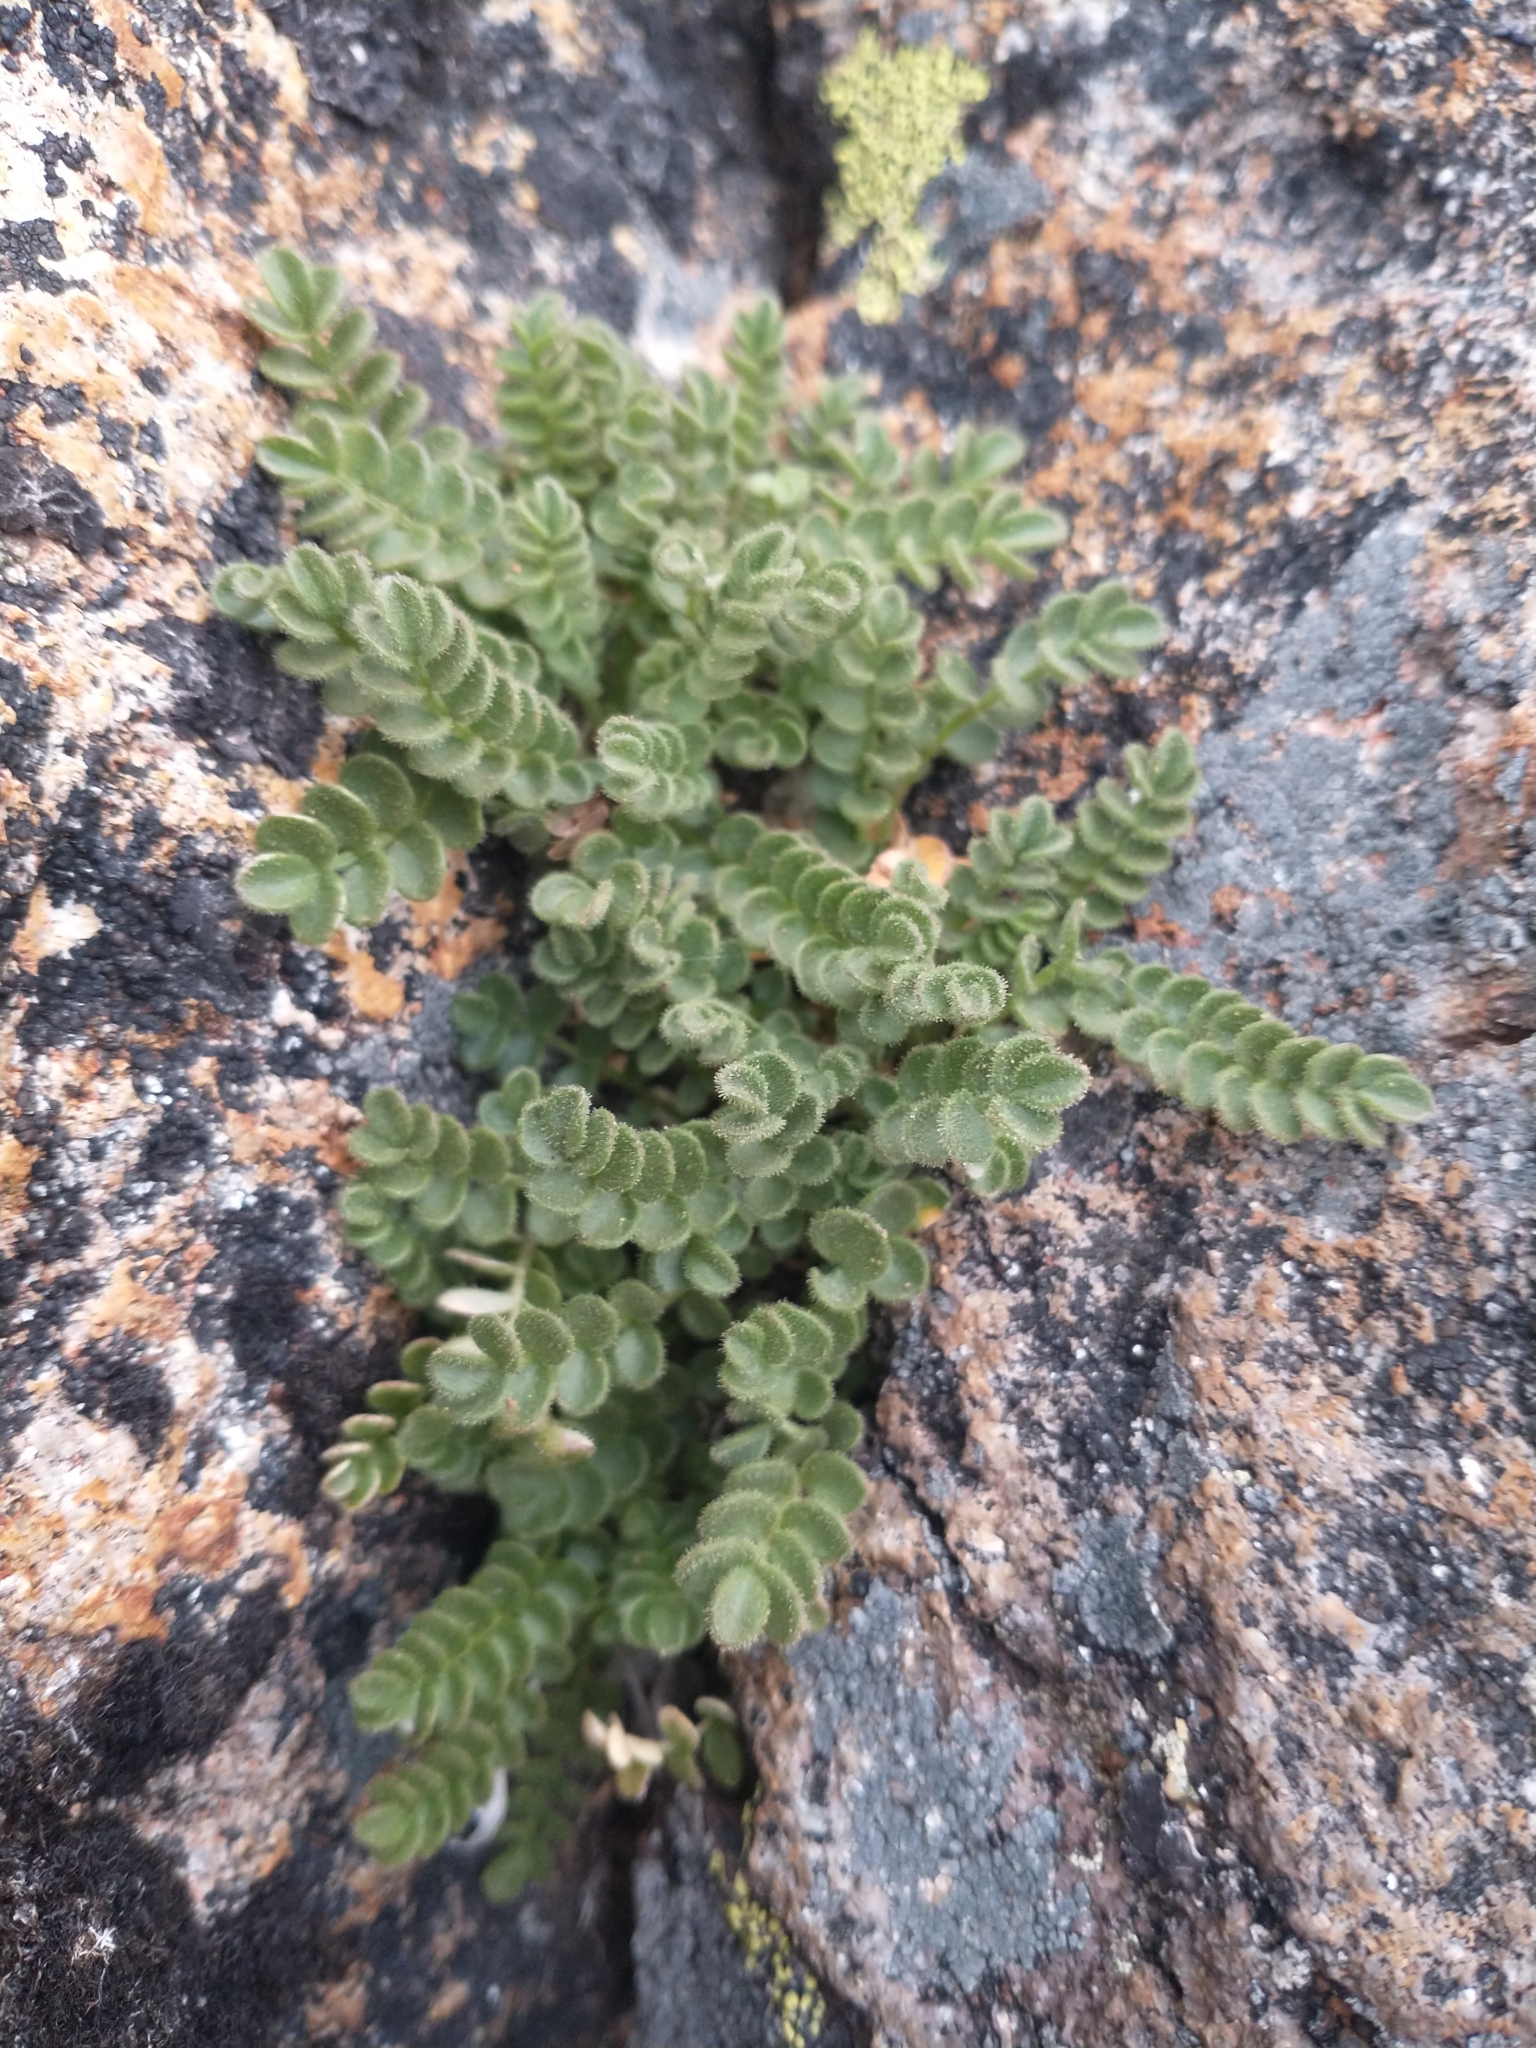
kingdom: Plantae
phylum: Tracheophyta
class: Magnoliopsida
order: Ericales
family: Polemoniaceae
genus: Polemonium
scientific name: Polemonium pulcherrimum
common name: Short jacob's-ladder
